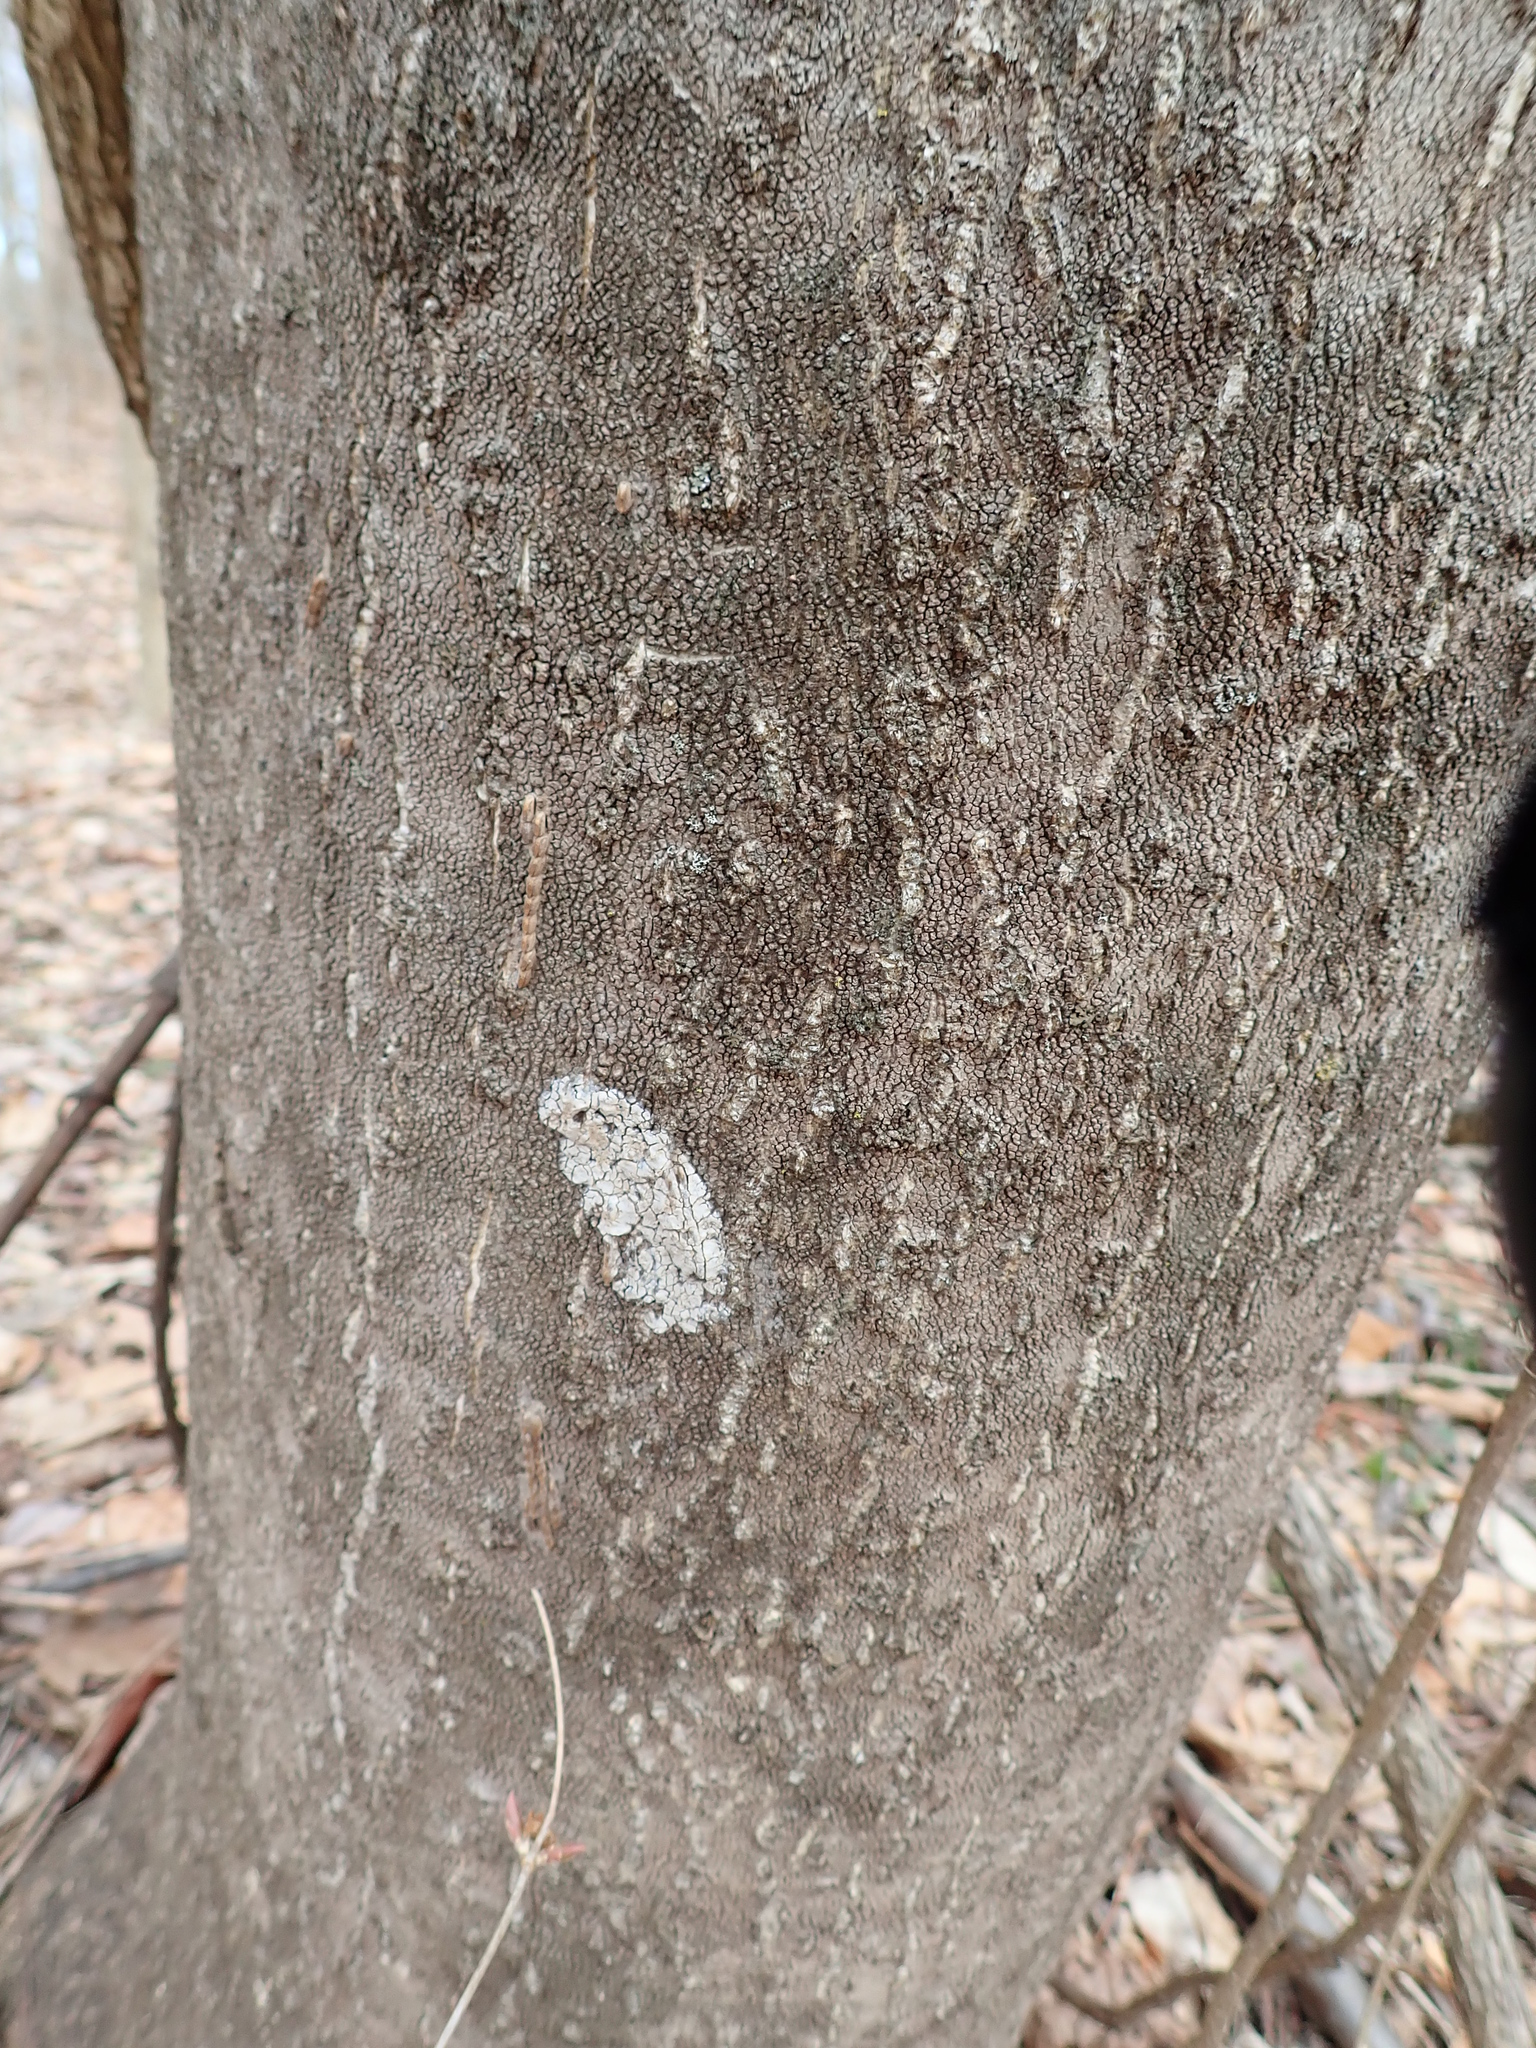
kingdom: Animalia
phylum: Arthropoda
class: Insecta
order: Hemiptera
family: Fulgoridae
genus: Lycorma
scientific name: Lycorma delicatula
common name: Spotted lanternfly
